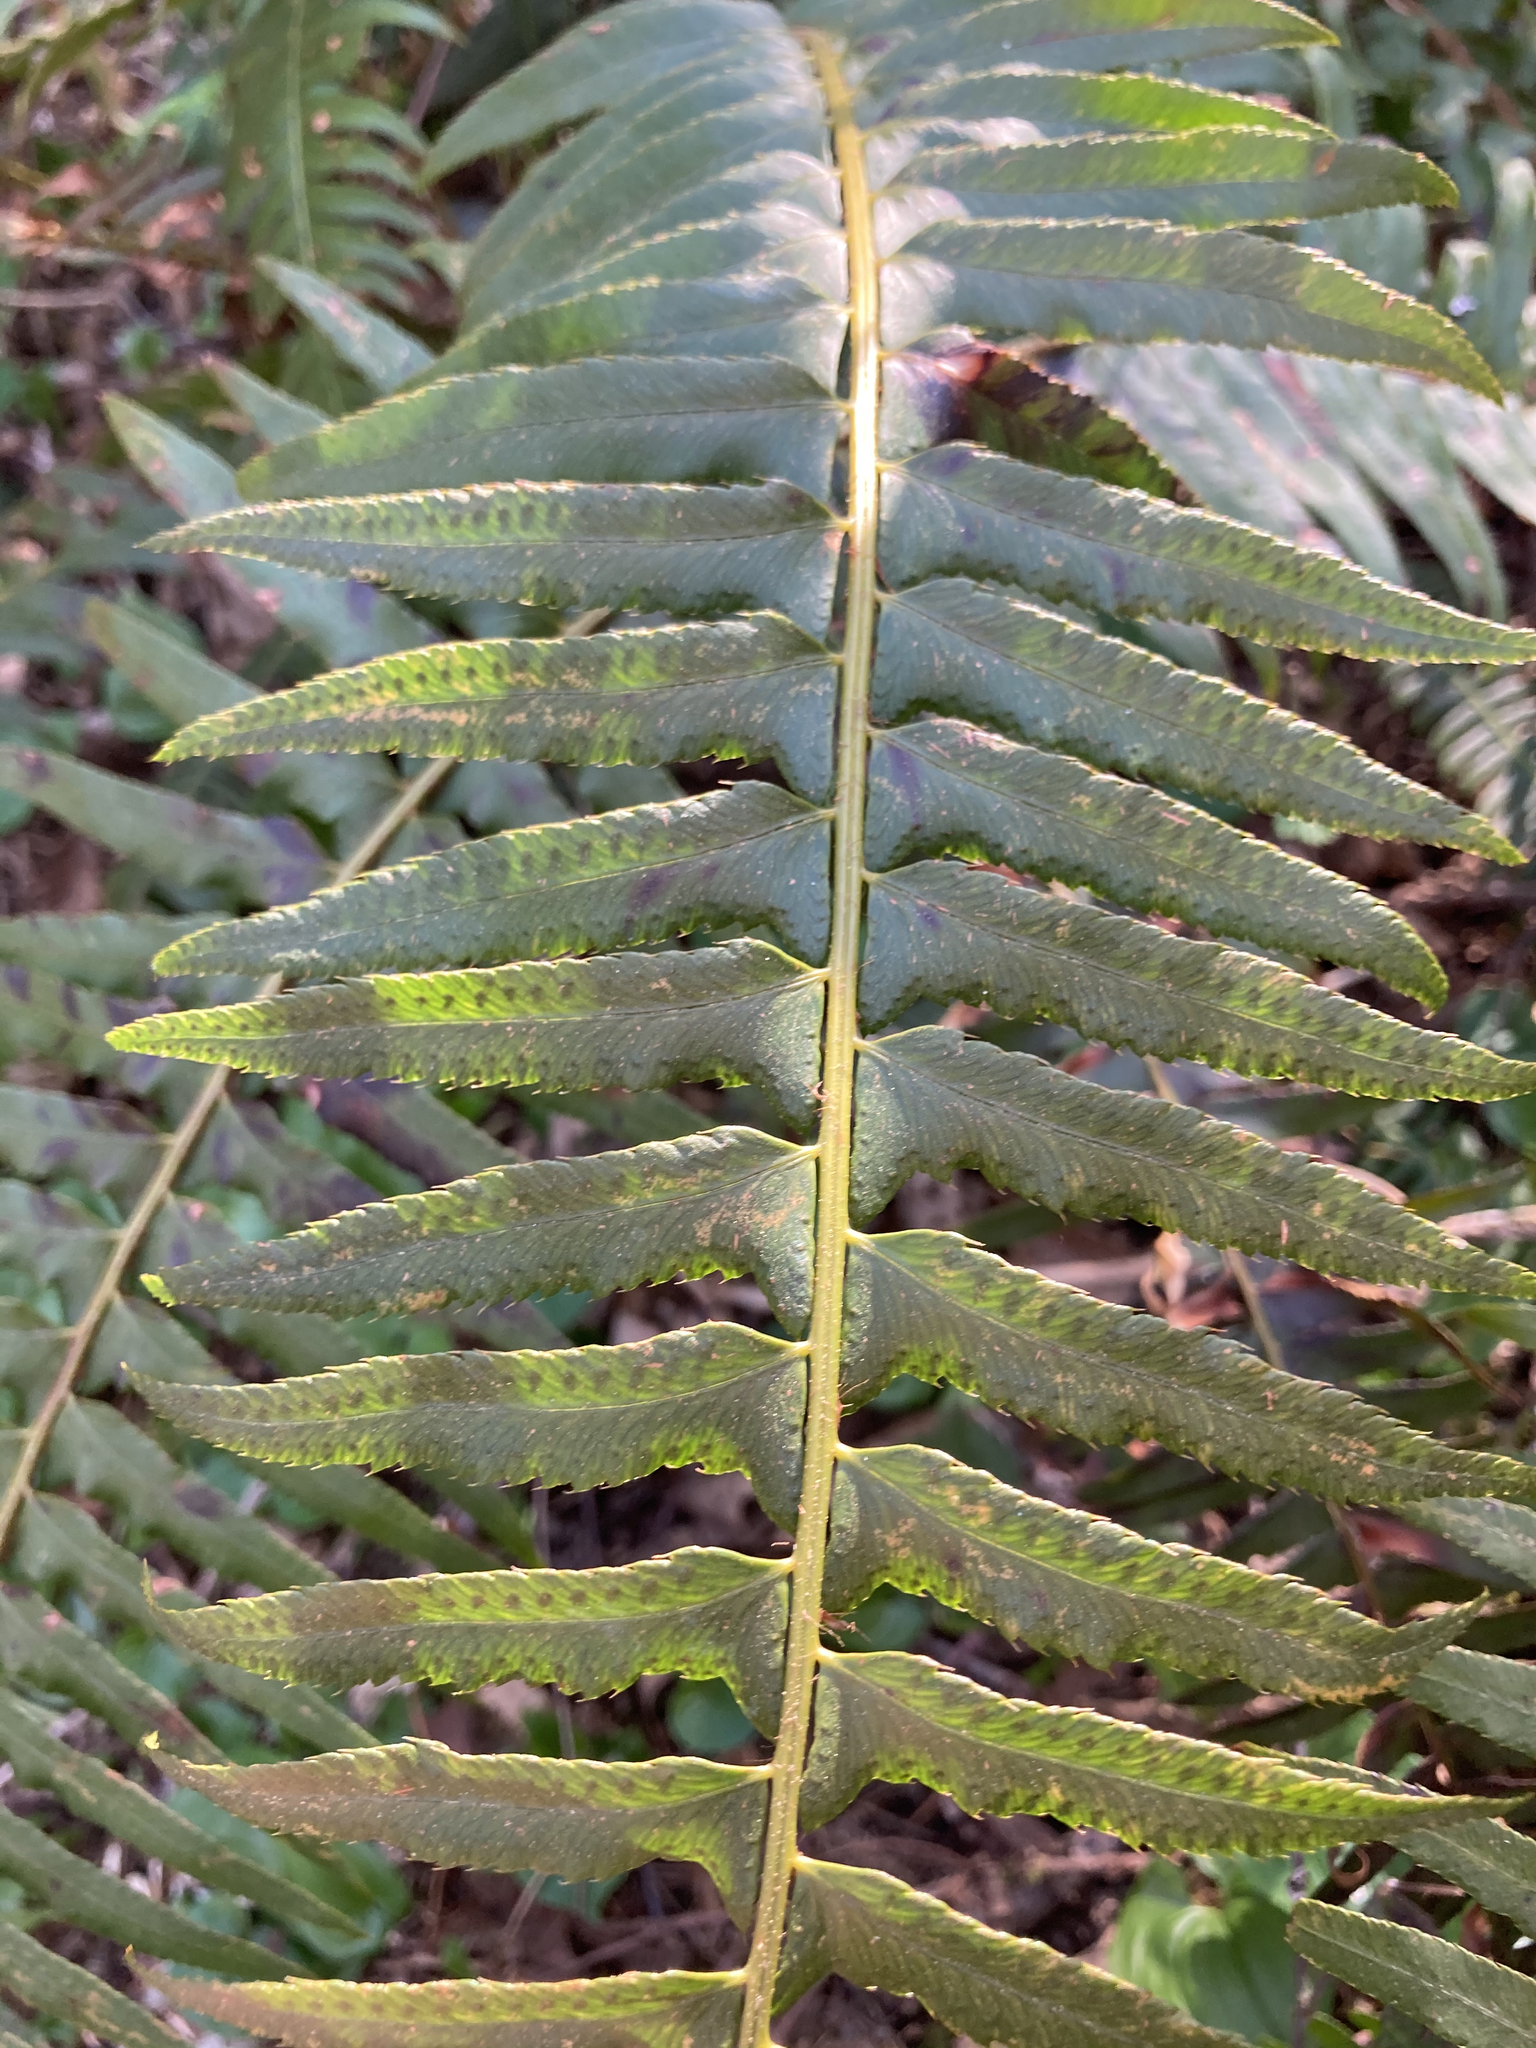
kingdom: Plantae
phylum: Tracheophyta
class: Polypodiopsida
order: Polypodiales
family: Dryopteridaceae
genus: Polystichum
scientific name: Polystichum munitum
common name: Western sword-fern
